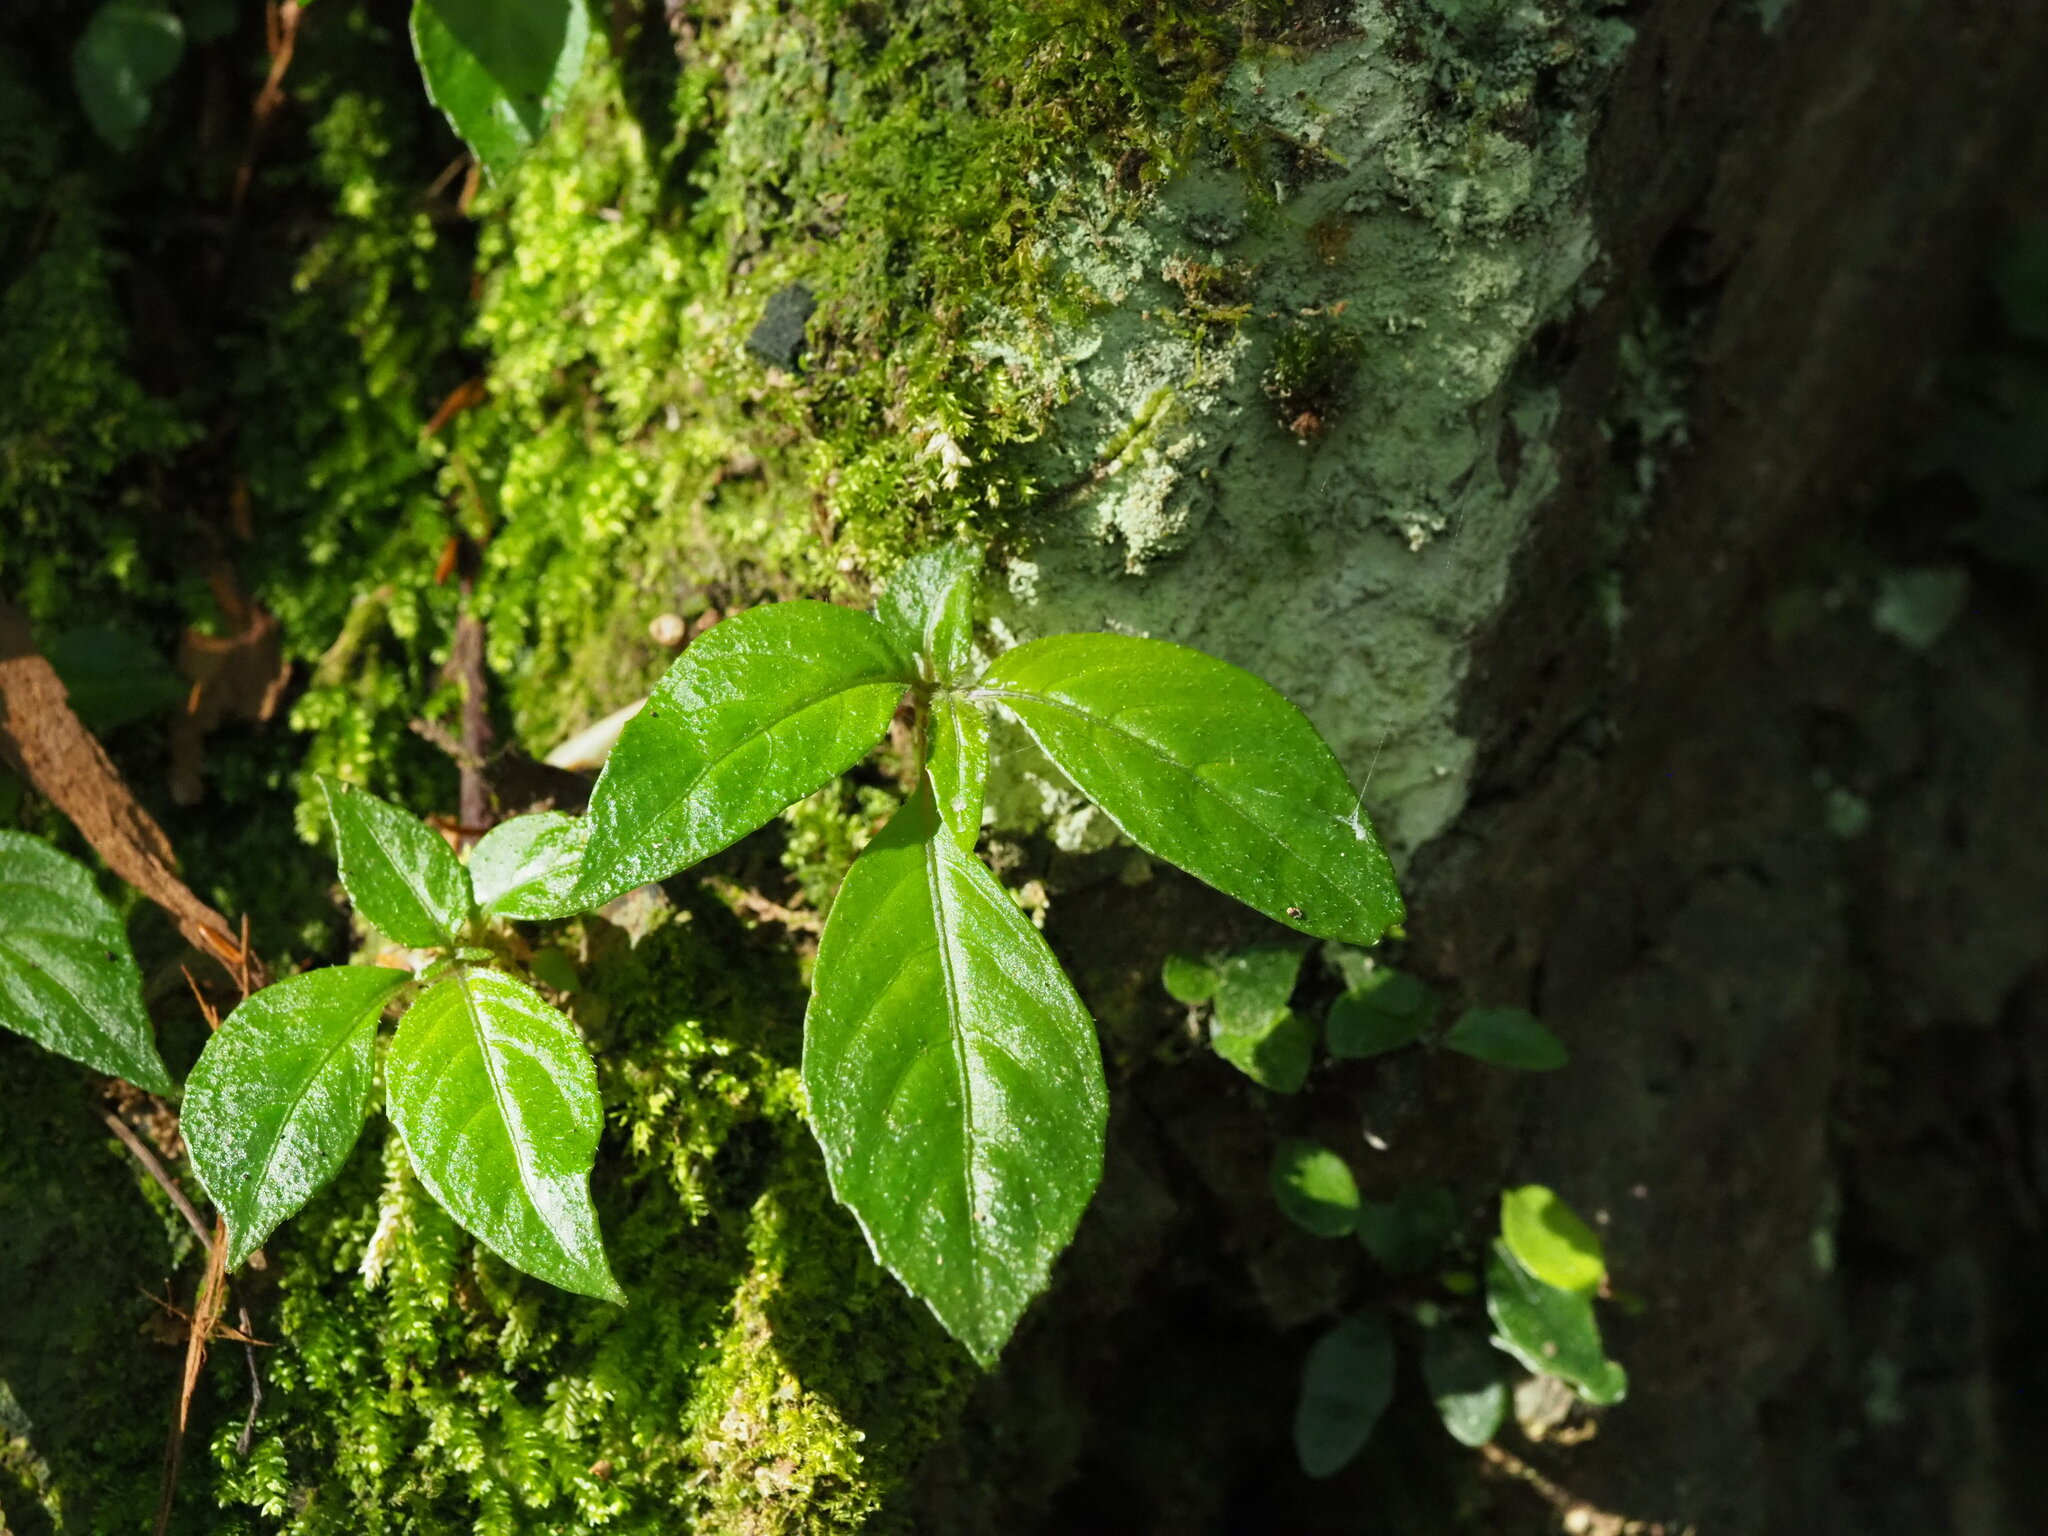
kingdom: Plantae
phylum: Tracheophyta
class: Magnoliopsida
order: Lamiales
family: Gesneriaceae
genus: Hemiboea
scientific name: Hemiboea bicornuta
